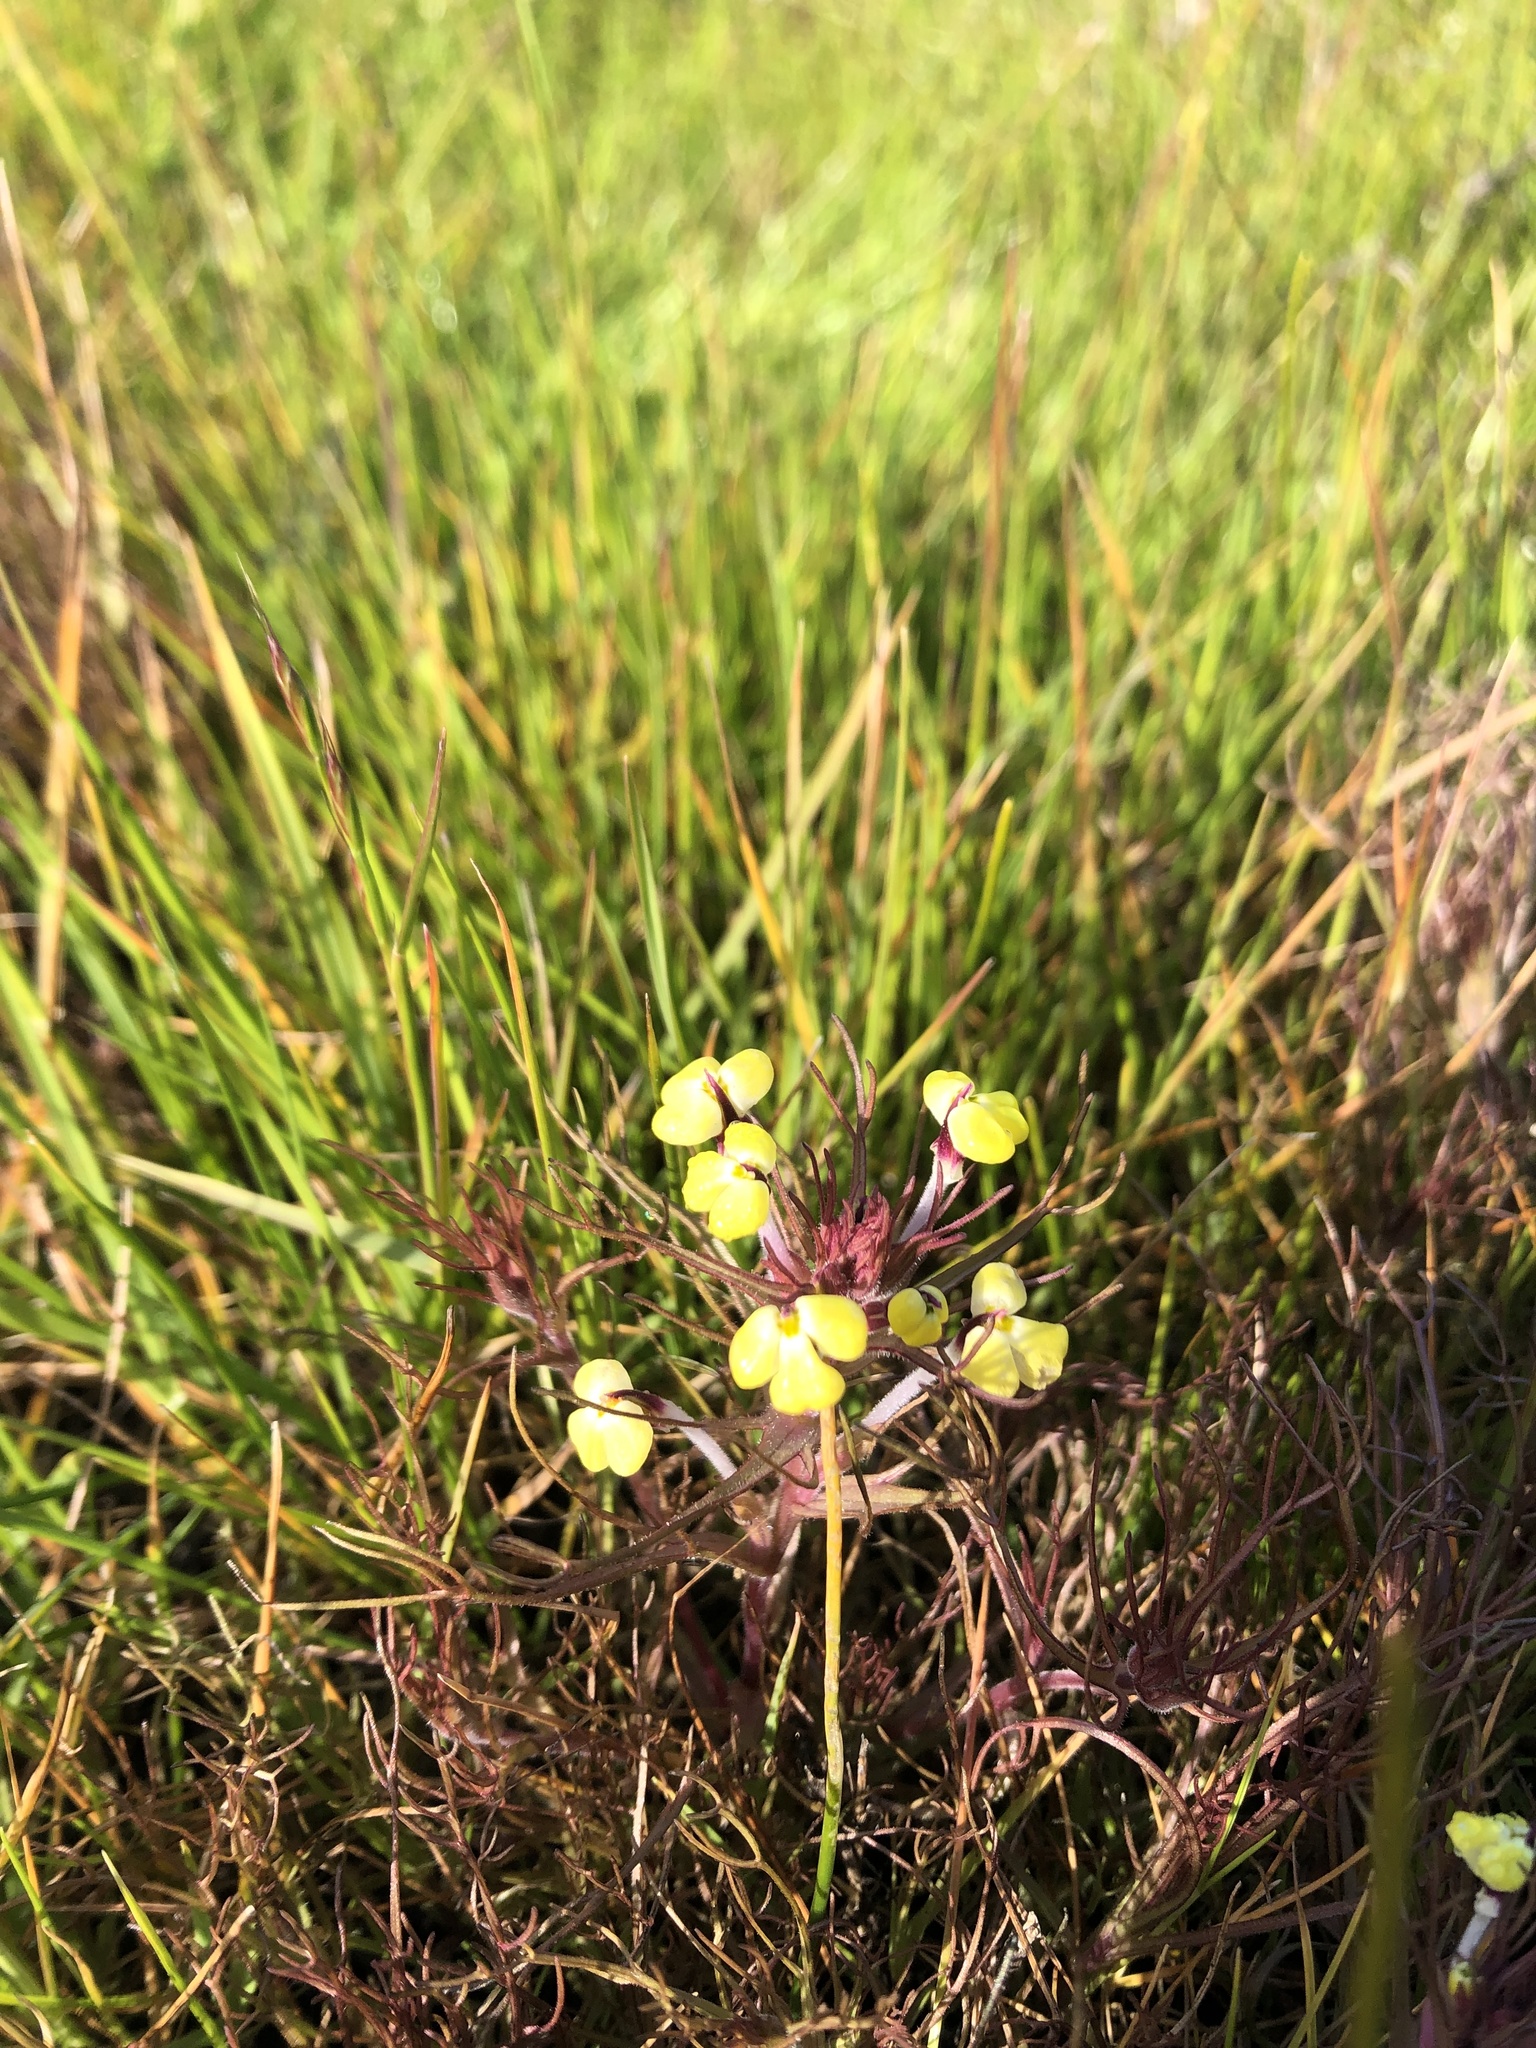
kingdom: Plantae
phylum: Tracheophyta
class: Magnoliopsida
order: Lamiales
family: Orobanchaceae
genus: Triphysaria
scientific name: Triphysaria eriantha
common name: Johnny-tuck
